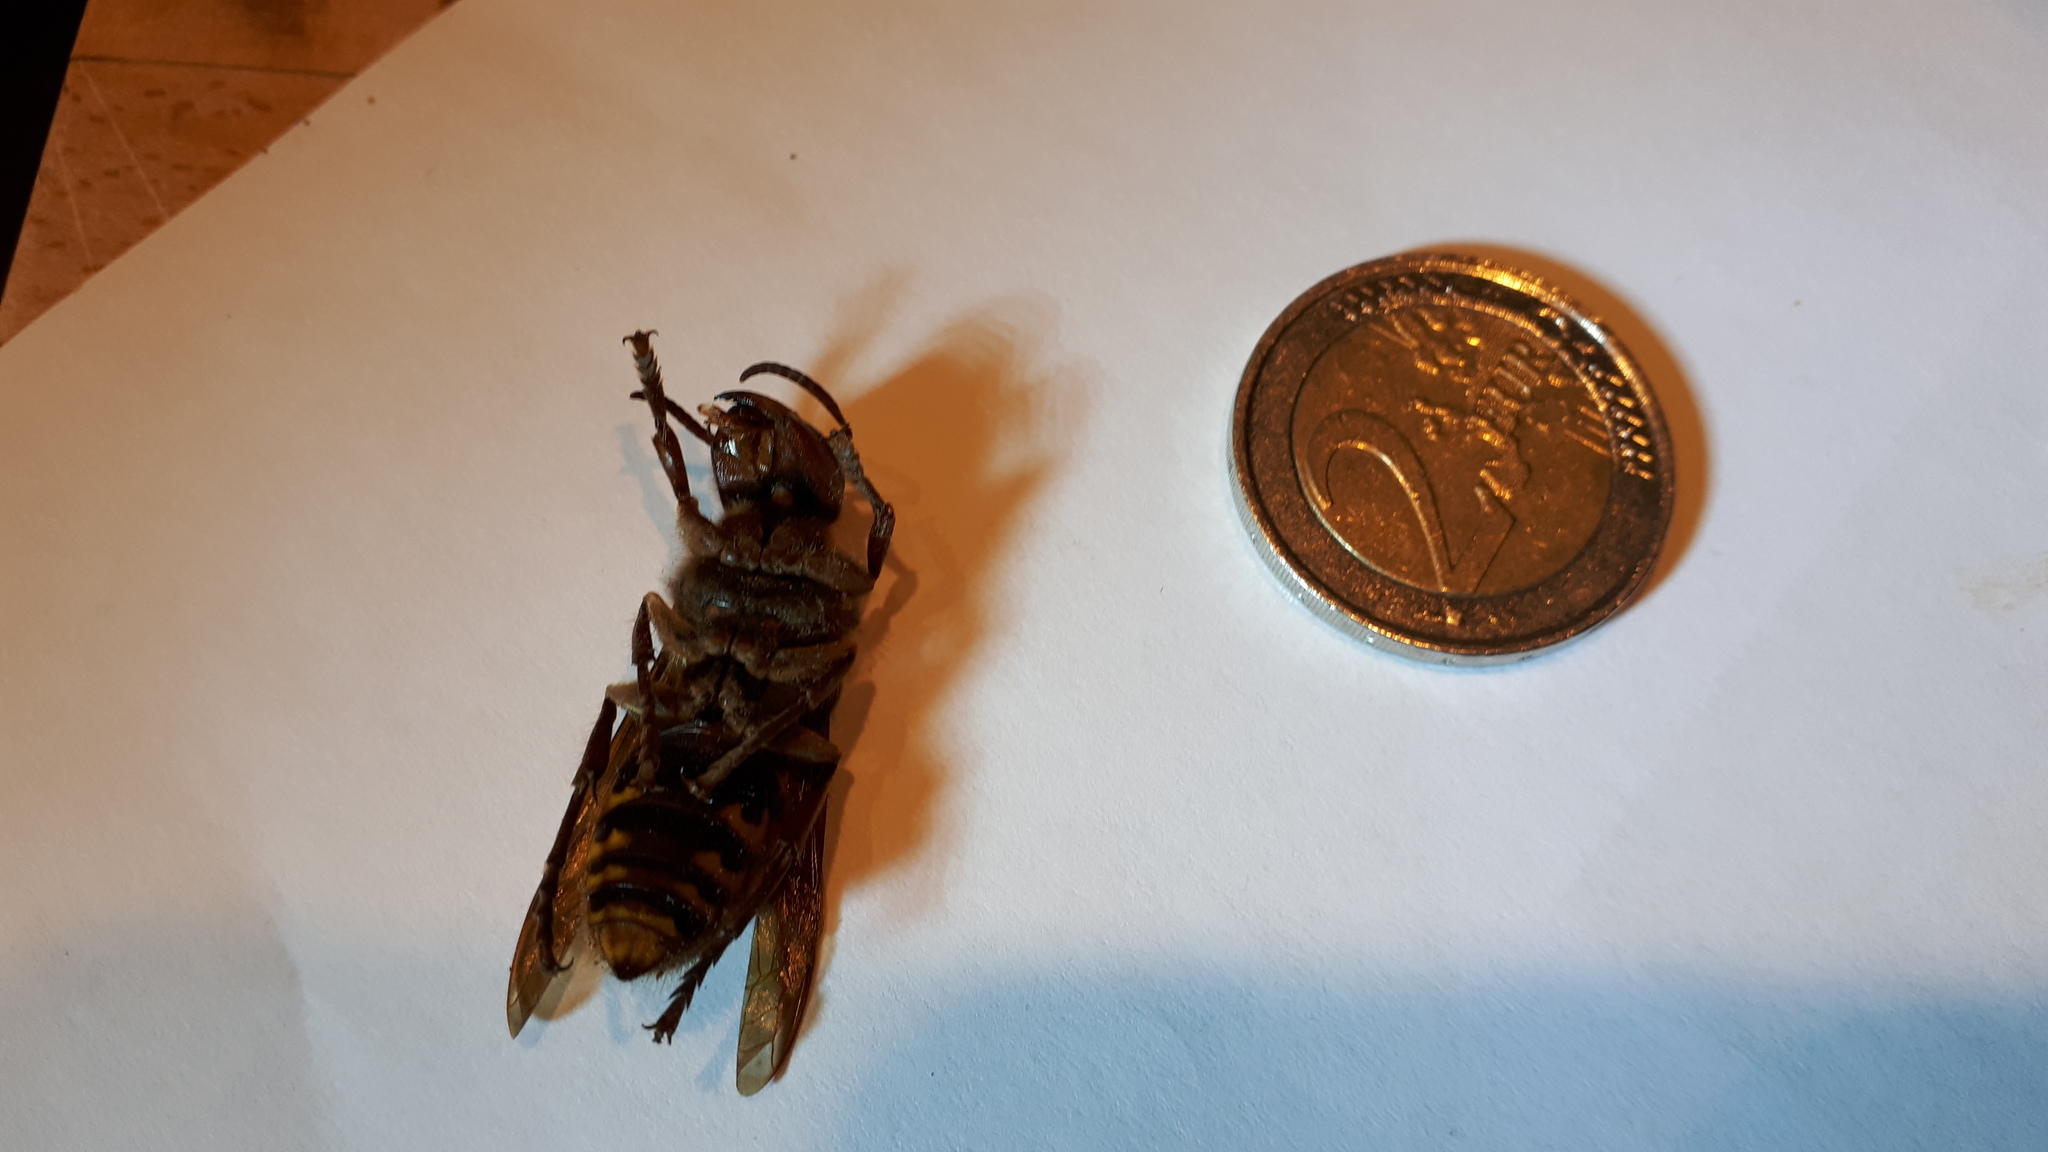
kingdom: Animalia
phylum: Arthropoda
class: Insecta
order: Hymenoptera
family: Vespidae
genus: Vespa
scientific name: Vespa crabro
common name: Hornet
